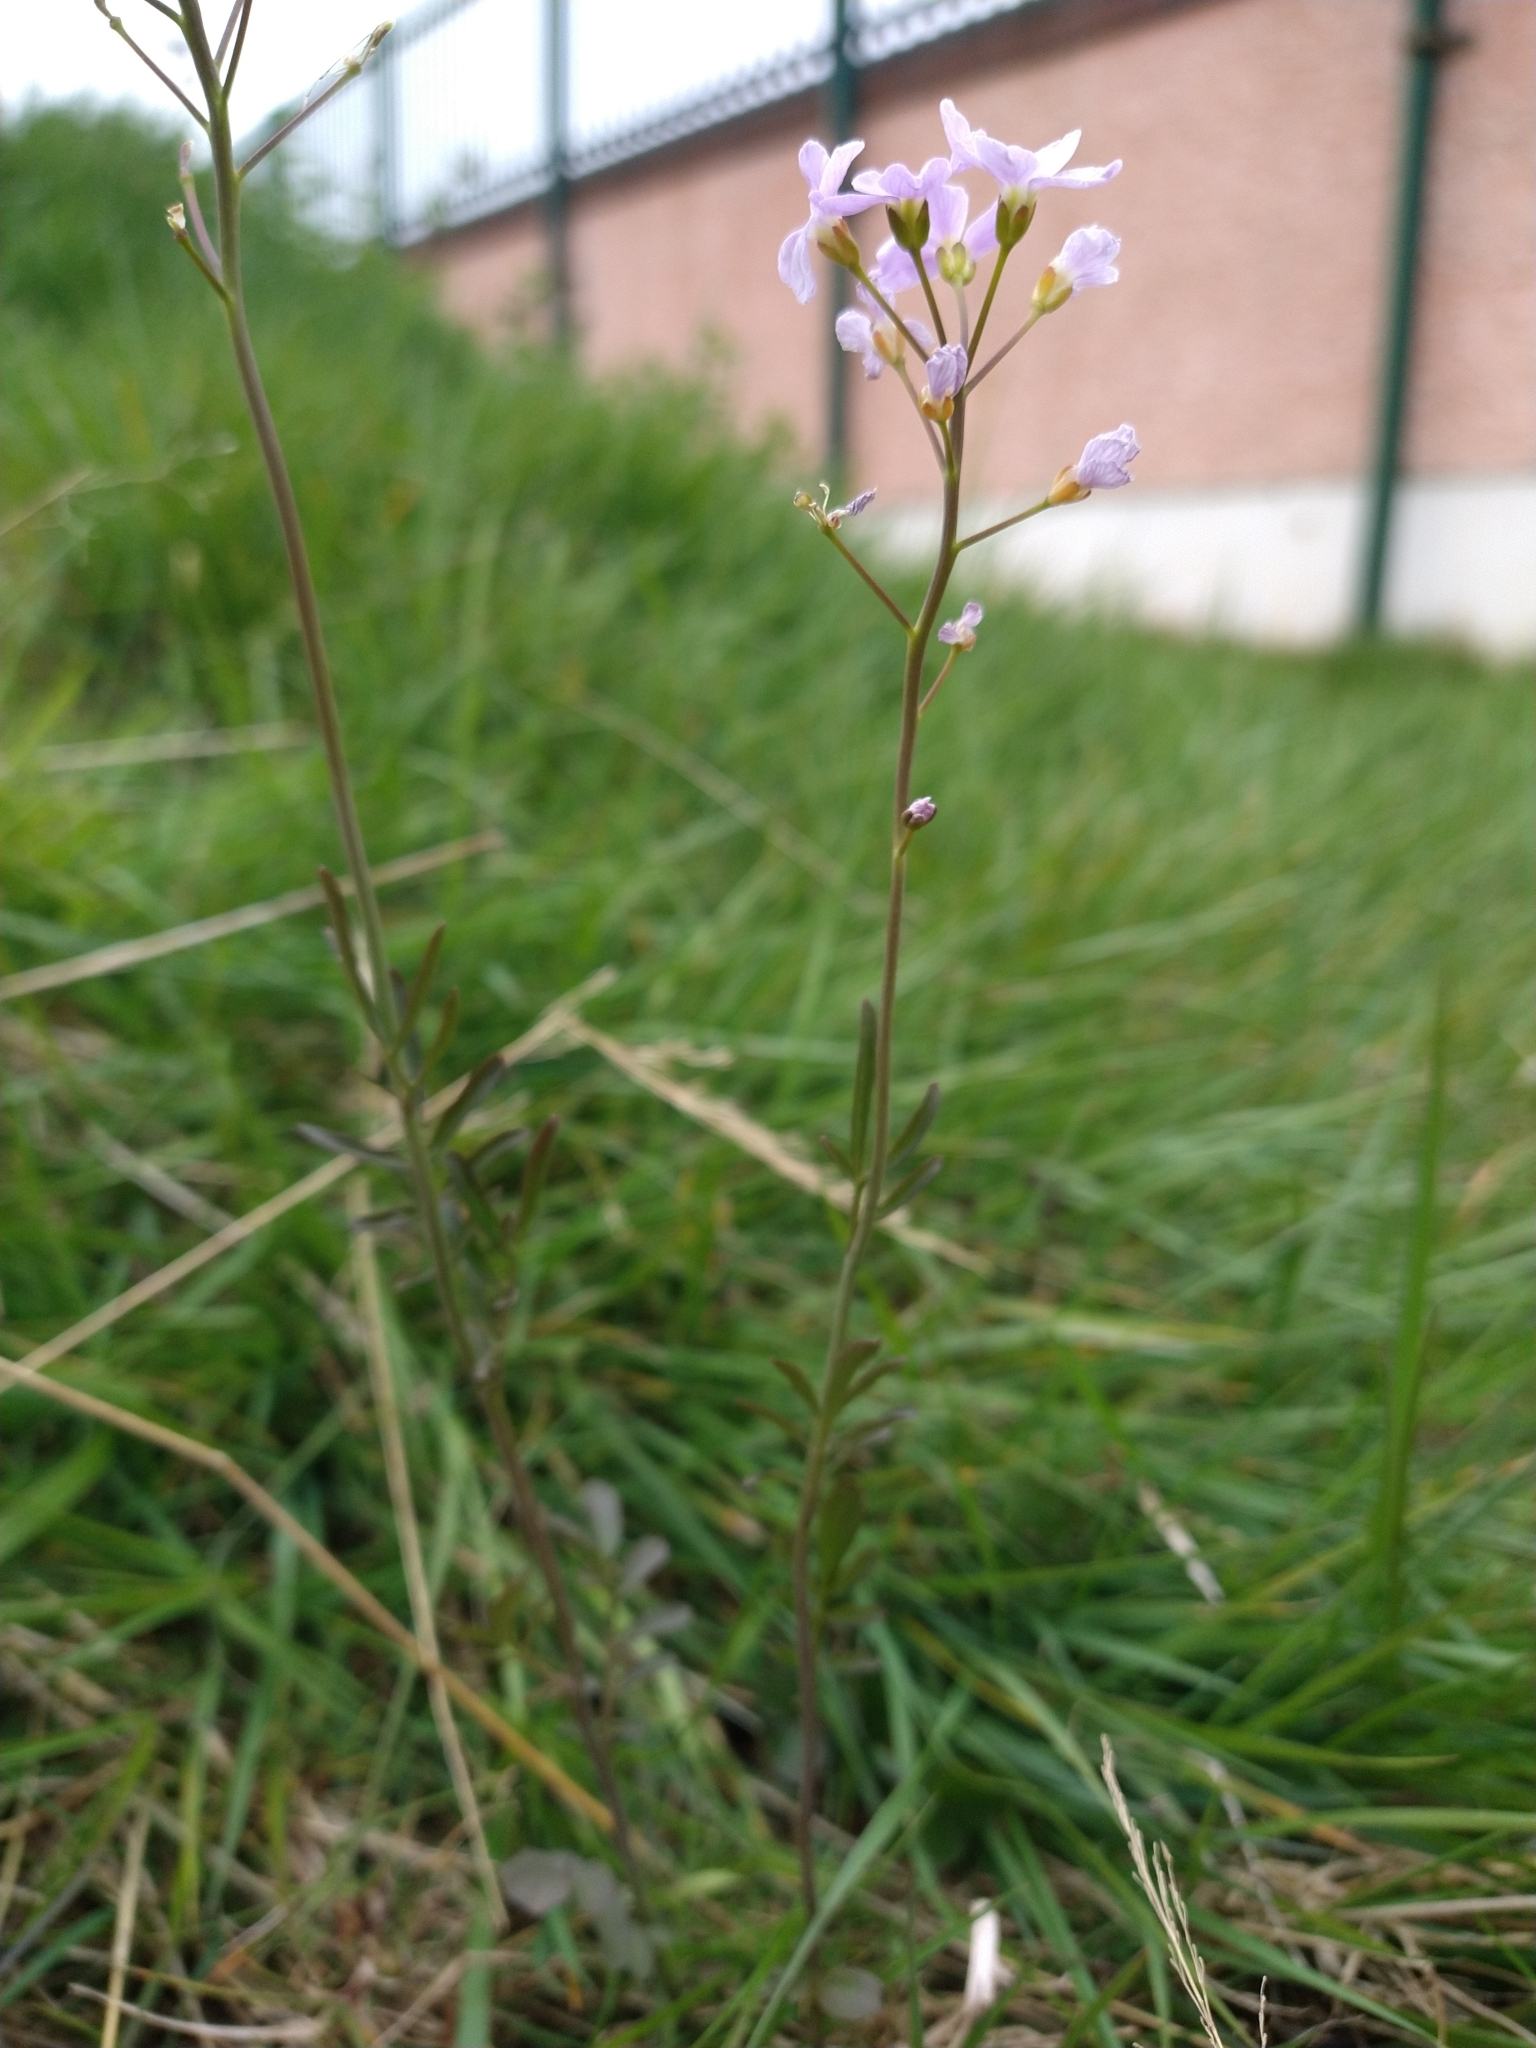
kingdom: Plantae
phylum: Tracheophyta
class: Magnoliopsida
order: Brassicales
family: Brassicaceae
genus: Cardamine
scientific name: Cardamine pratensis
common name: Cuckoo flower
